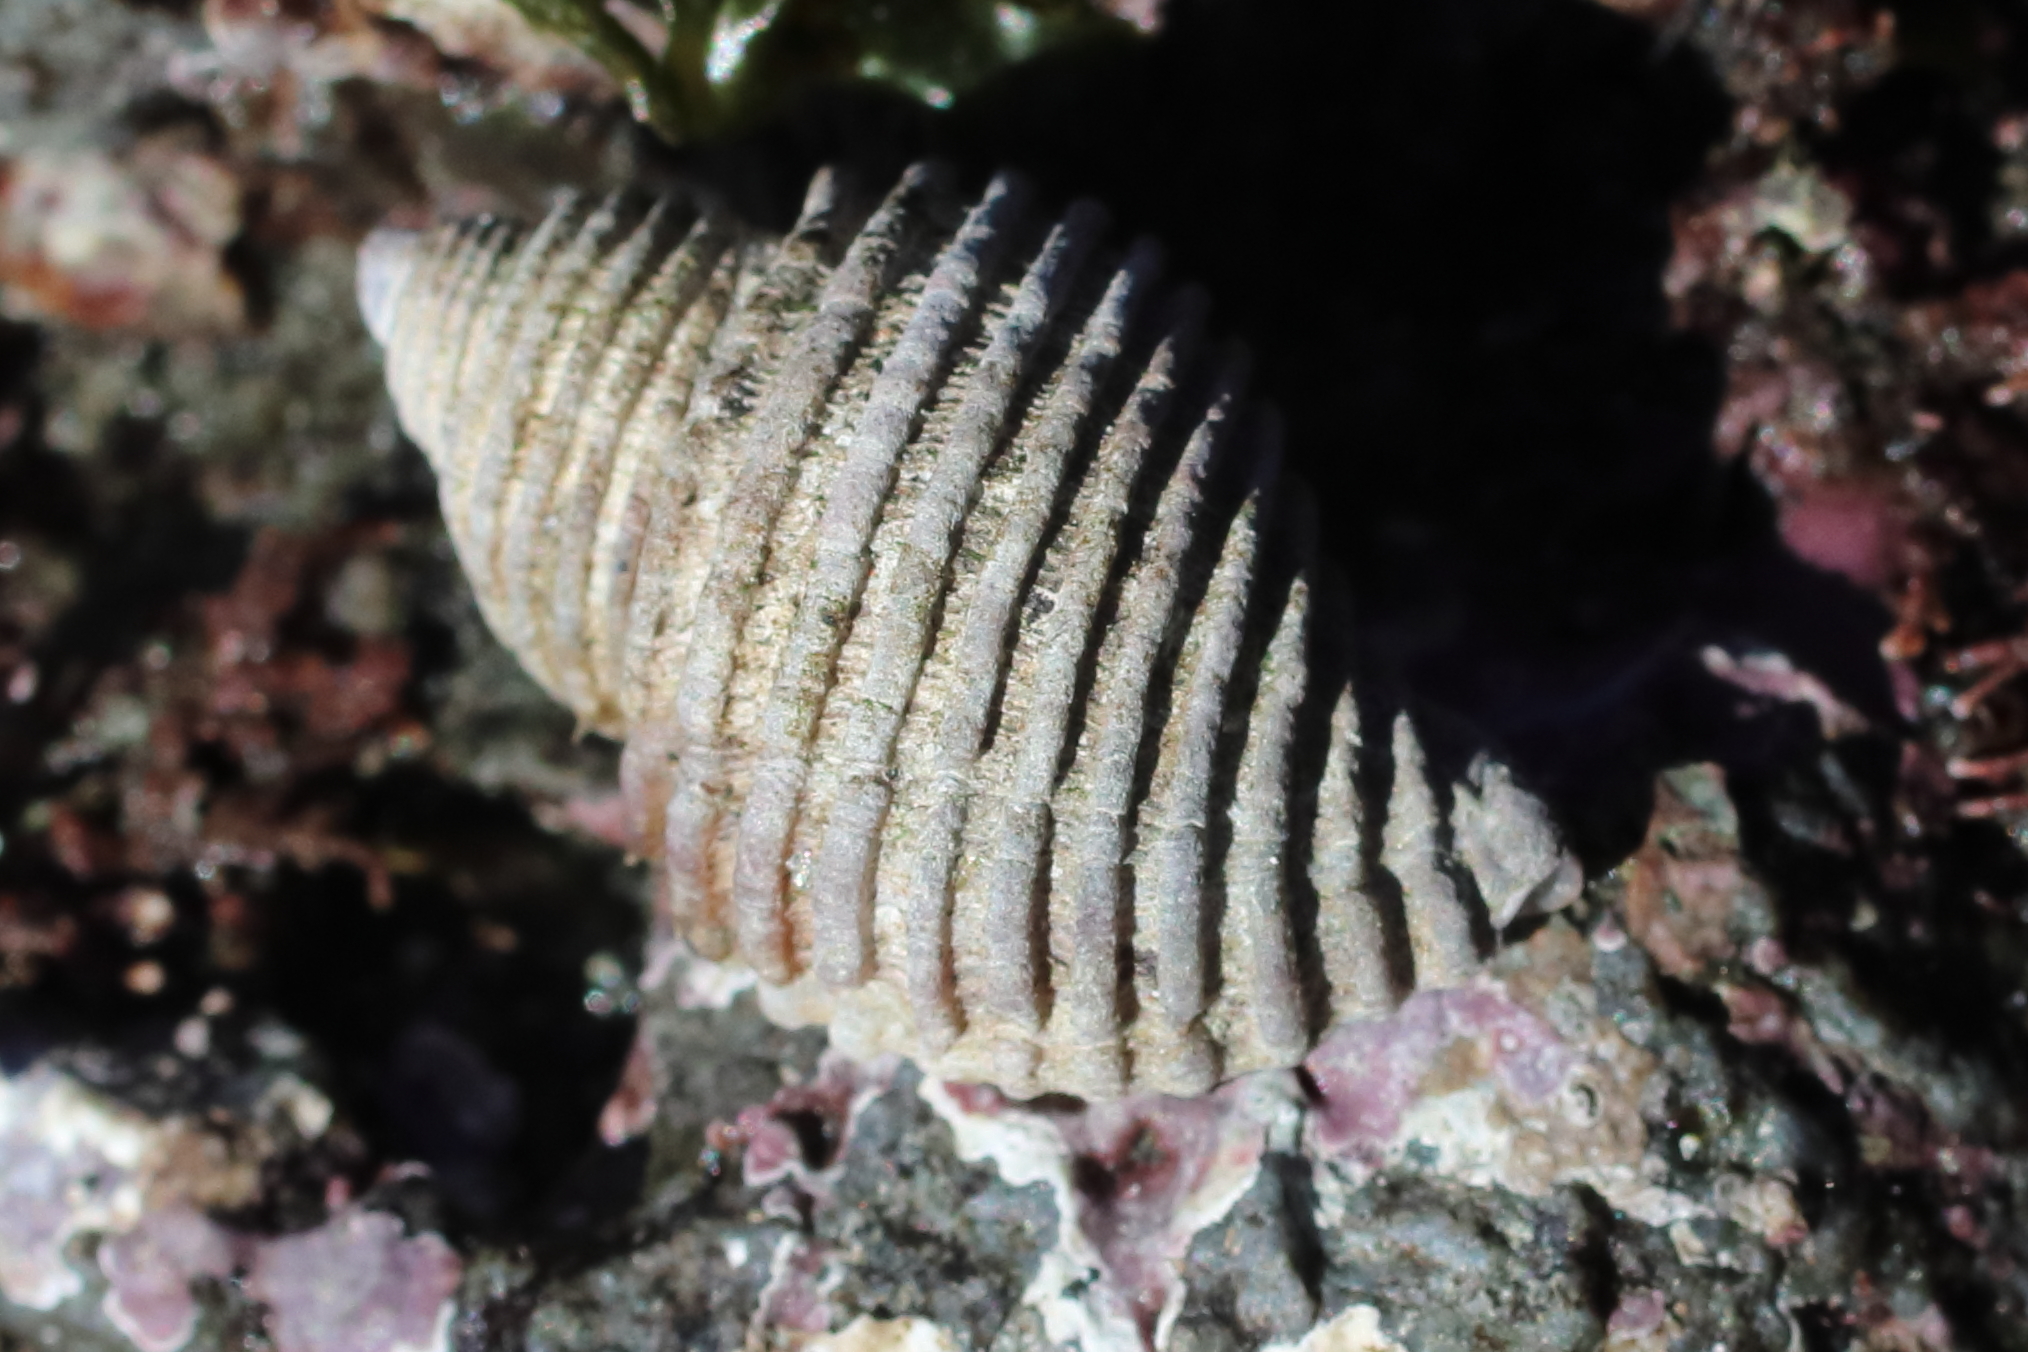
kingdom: Animalia
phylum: Mollusca
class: Gastropoda
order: Neogastropoda
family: Muricidae
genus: Nucella
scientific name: Nucella canaliculata
